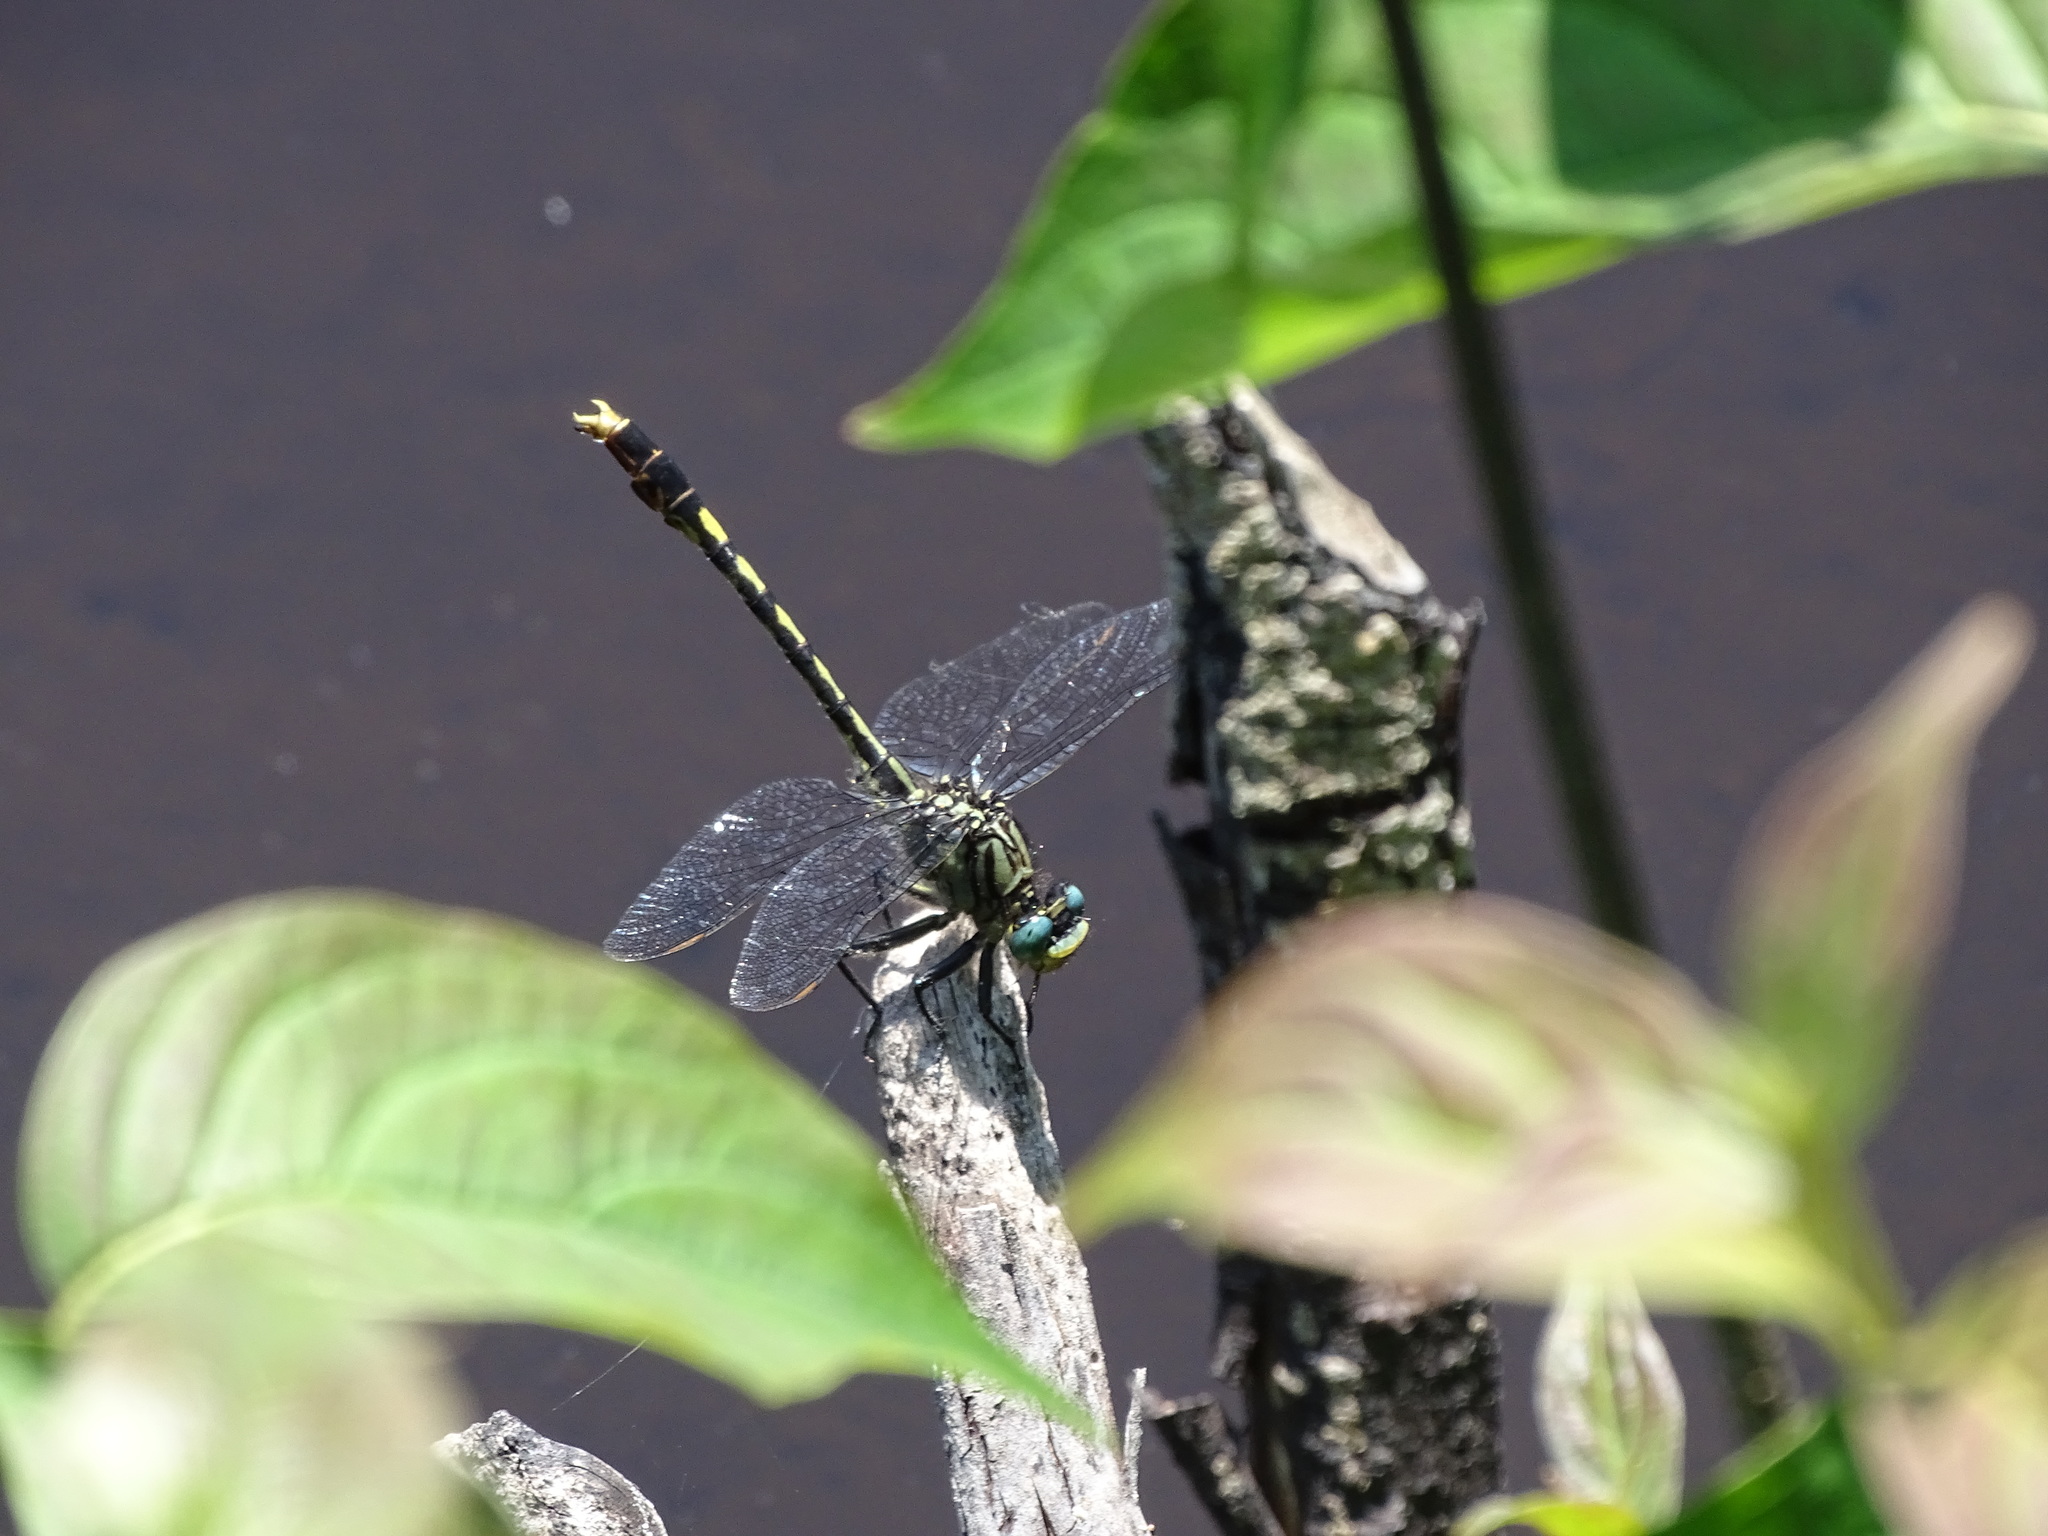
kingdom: Animalia
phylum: Arthropoda
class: Insecta
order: Odonata
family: Gomphidae
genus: Arigomphus
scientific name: Arigomphus villosipes
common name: Unicorn clubtail
